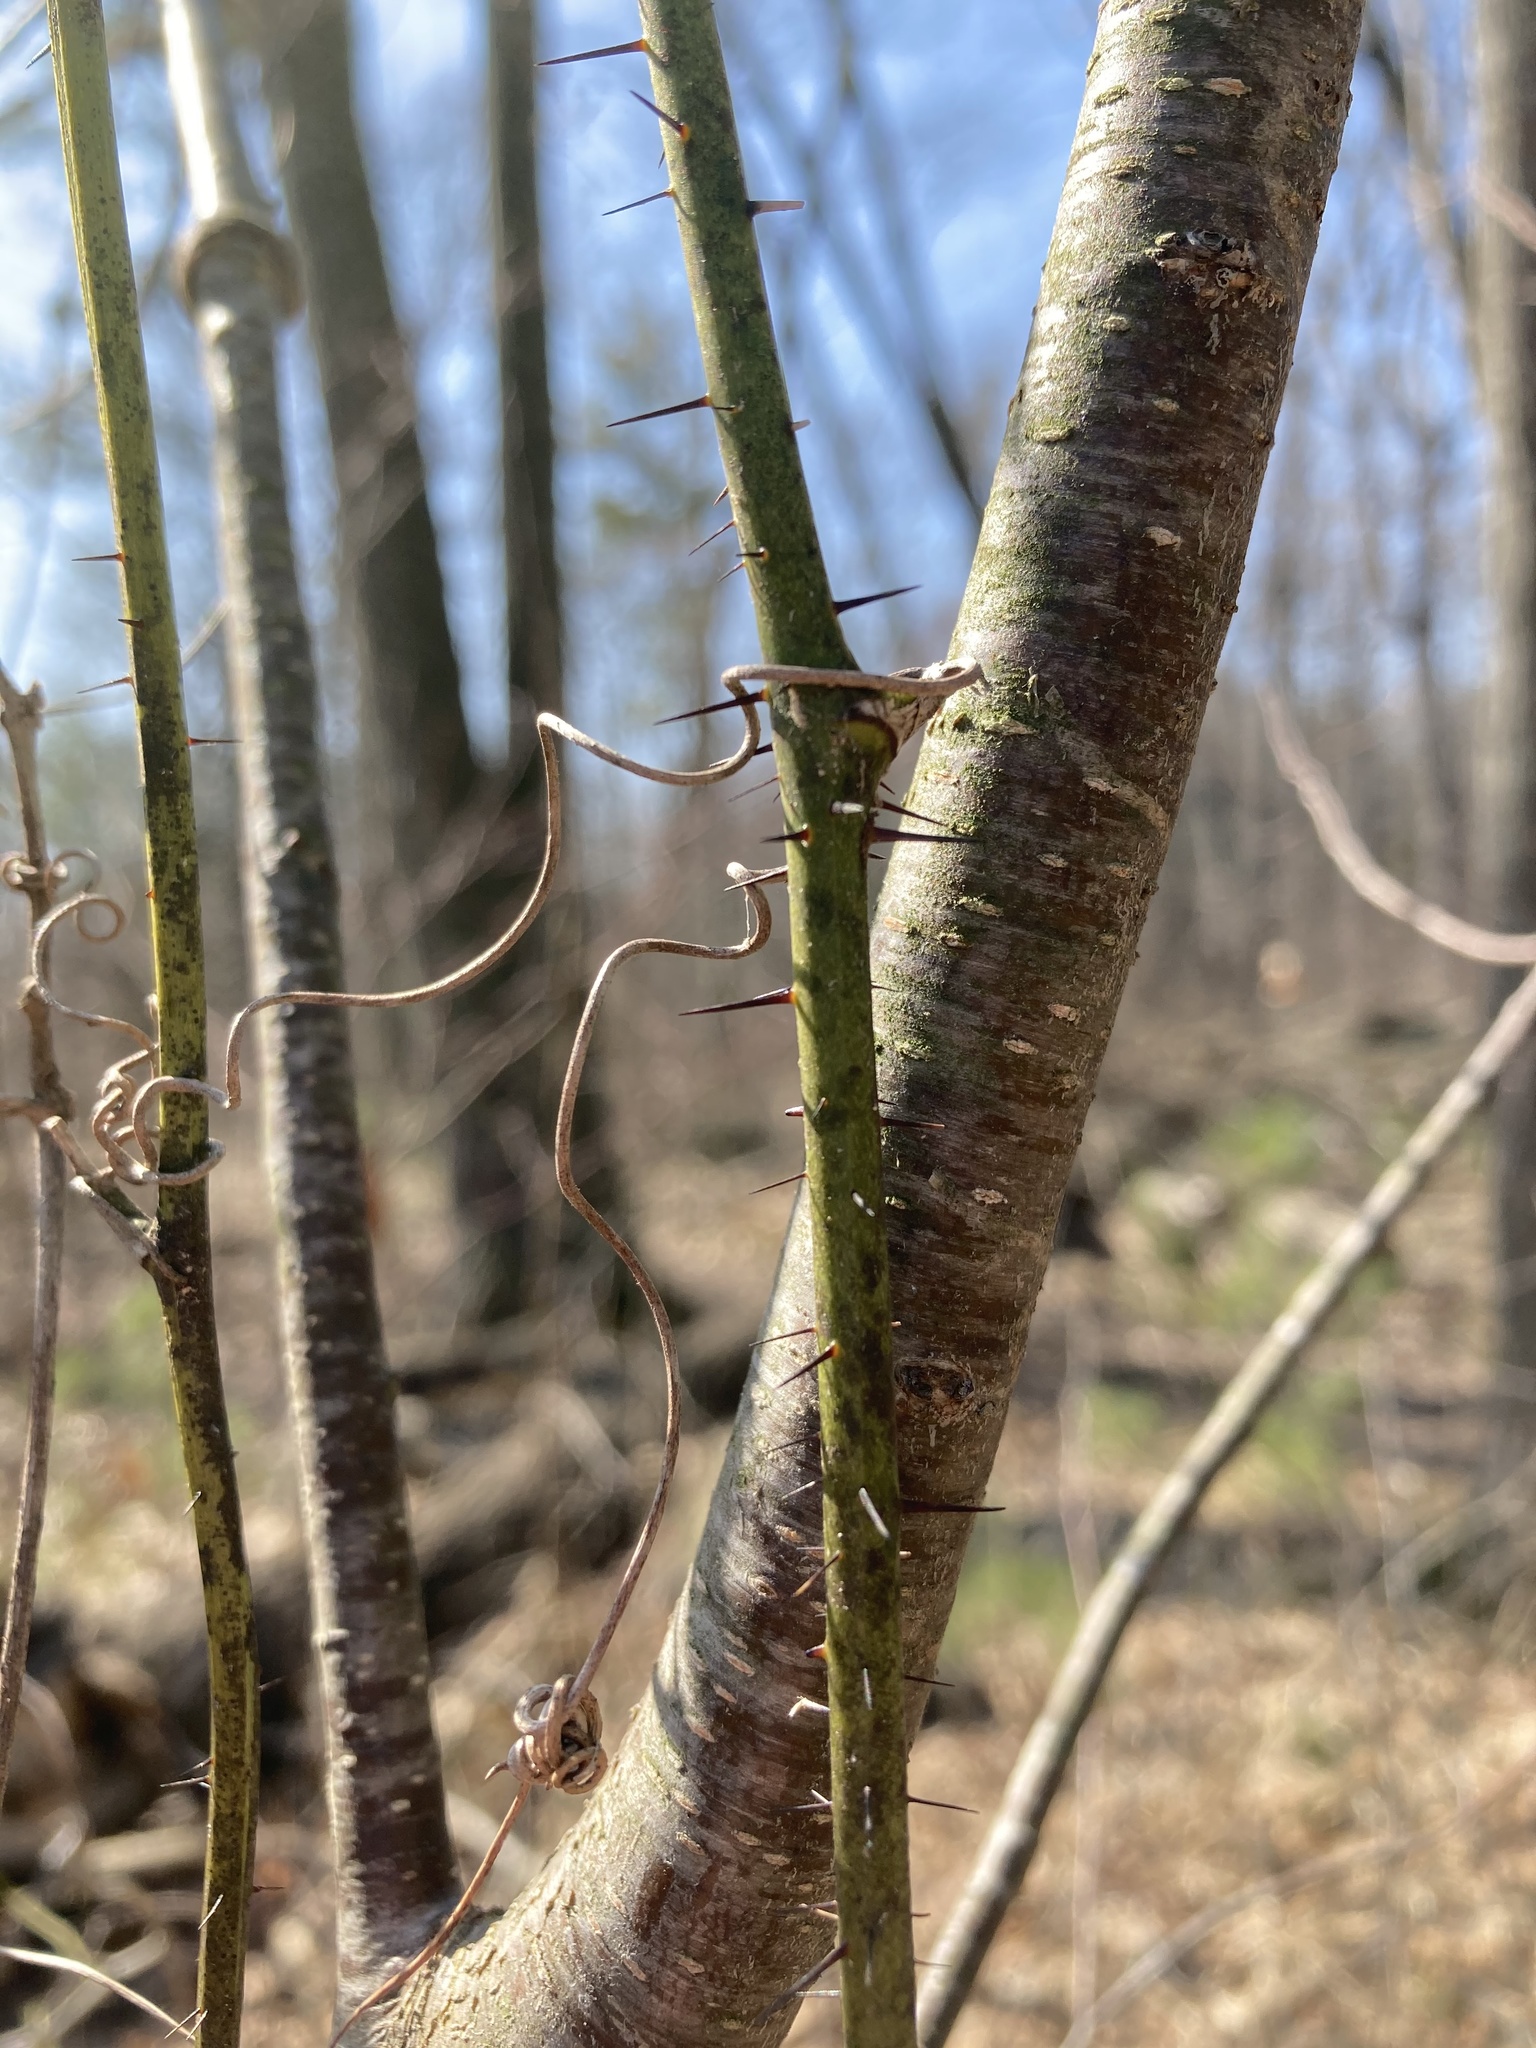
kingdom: Plantae
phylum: Tracheophyta
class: Liliopsida
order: Liliales
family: Smilacaceae
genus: Smilax
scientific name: Smilax tamnoides
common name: Hellfetter
